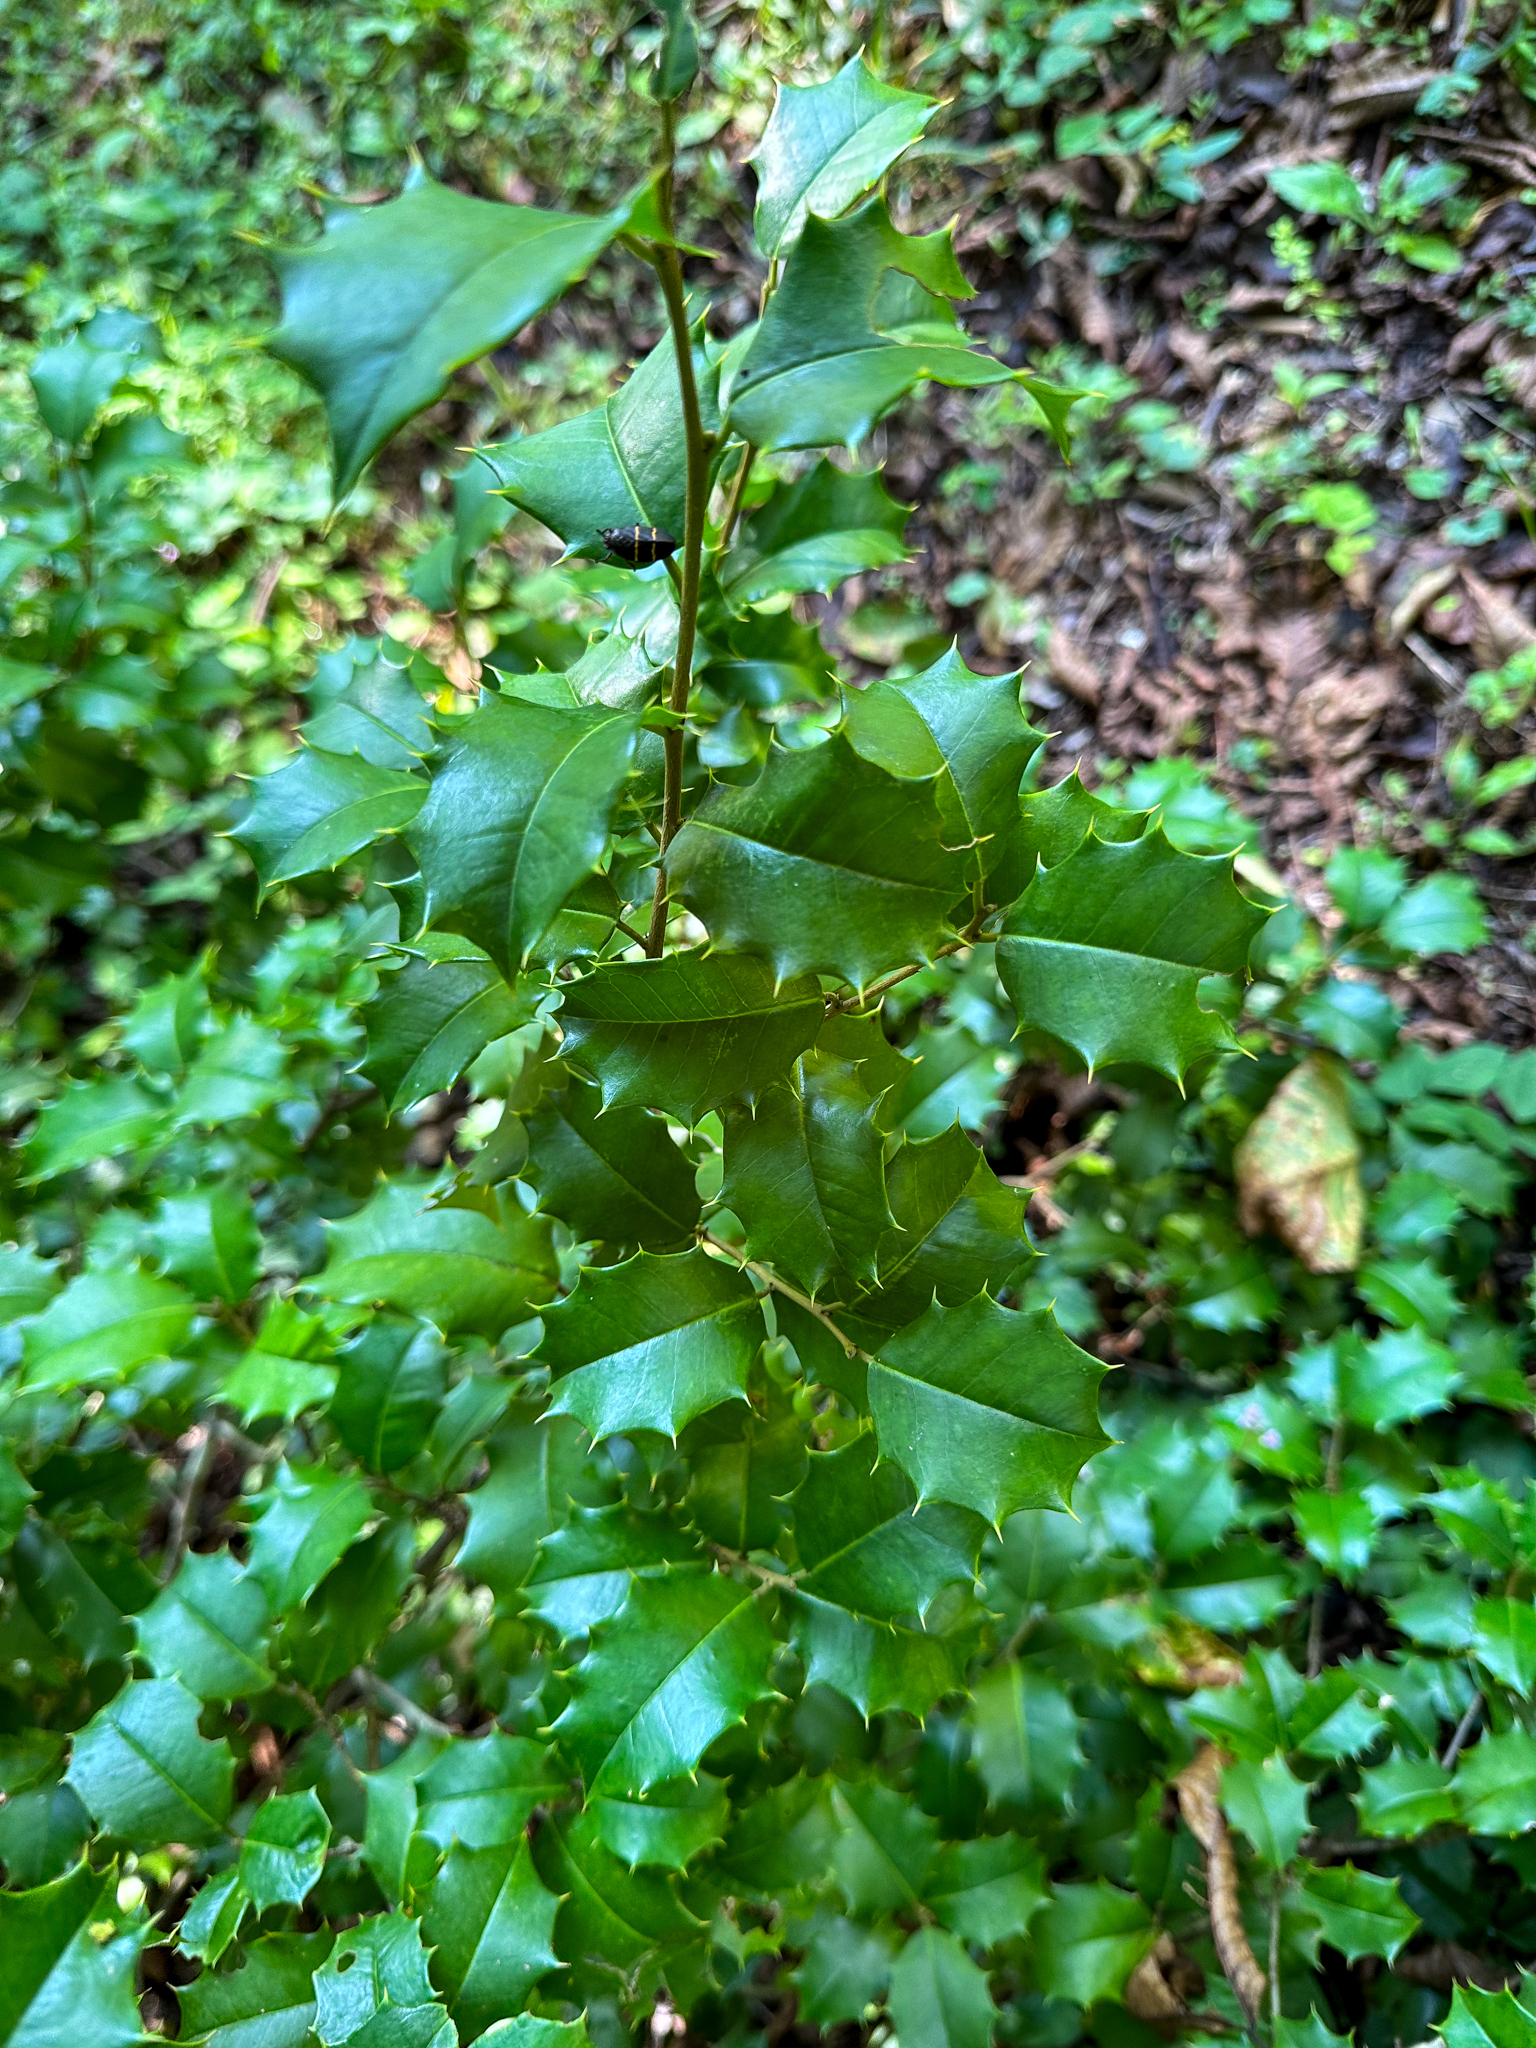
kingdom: Plantae
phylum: Tracheophyta
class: Magnoliopsida
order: Aquifoliales
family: Aquifoliaceae
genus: Ilex
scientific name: Ilex opaca
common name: American holly
